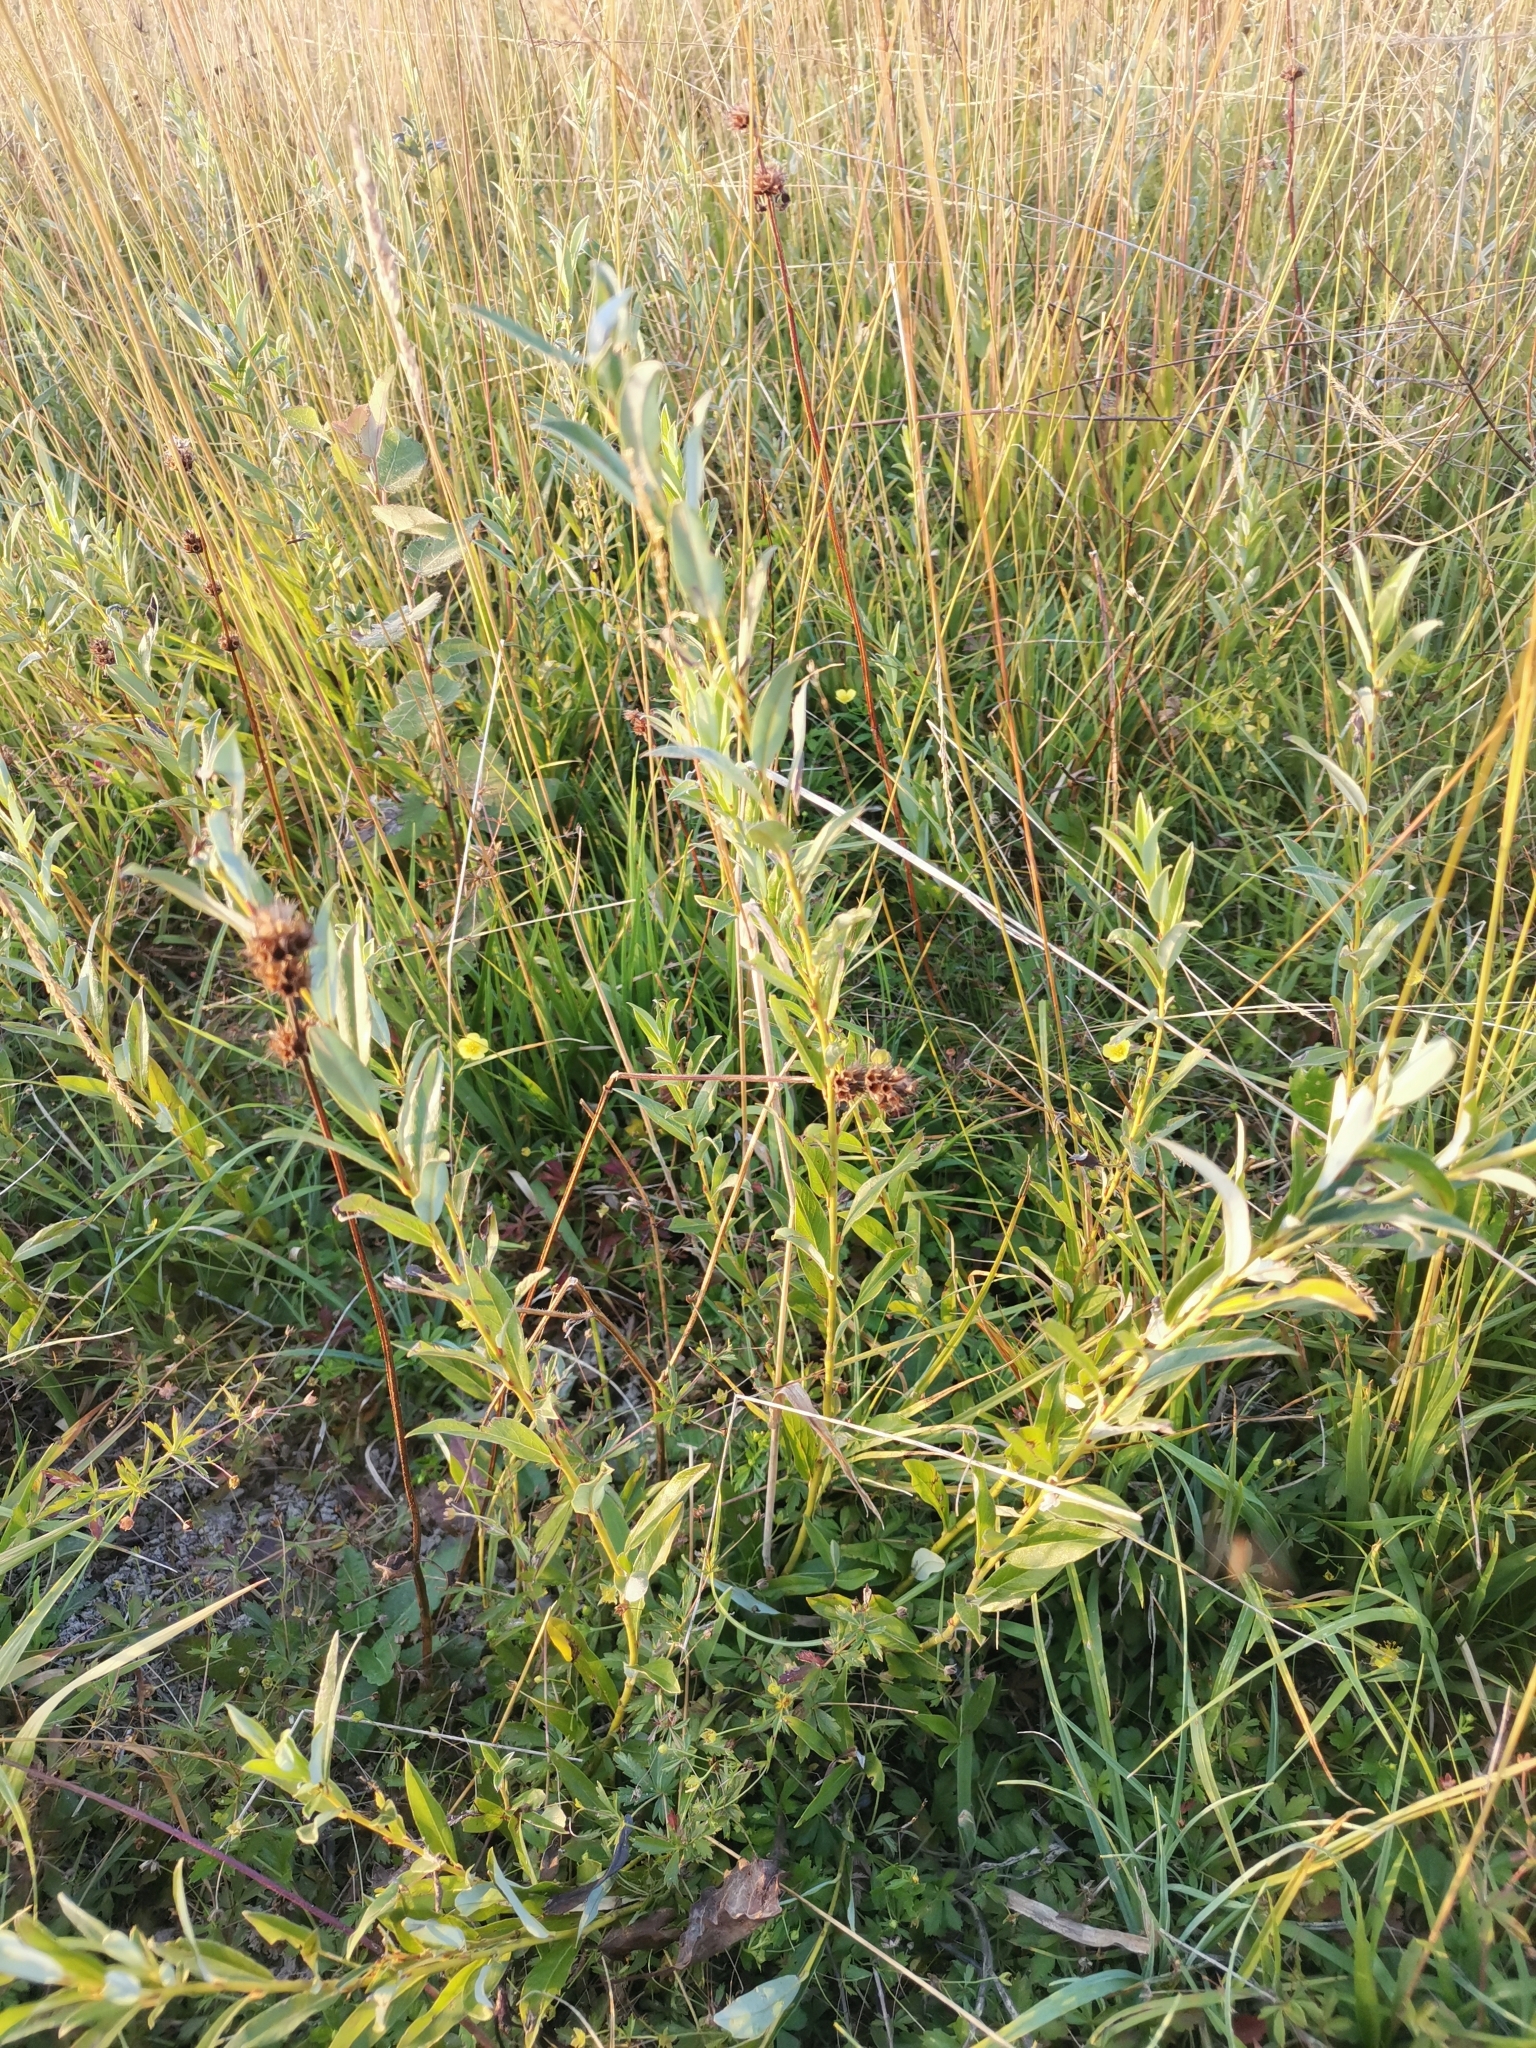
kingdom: Plantae
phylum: Tracheophyta
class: Magnoliopsida
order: Malpighiales
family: Salicaceae
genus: Salix
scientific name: Salix rosmarinifolia
